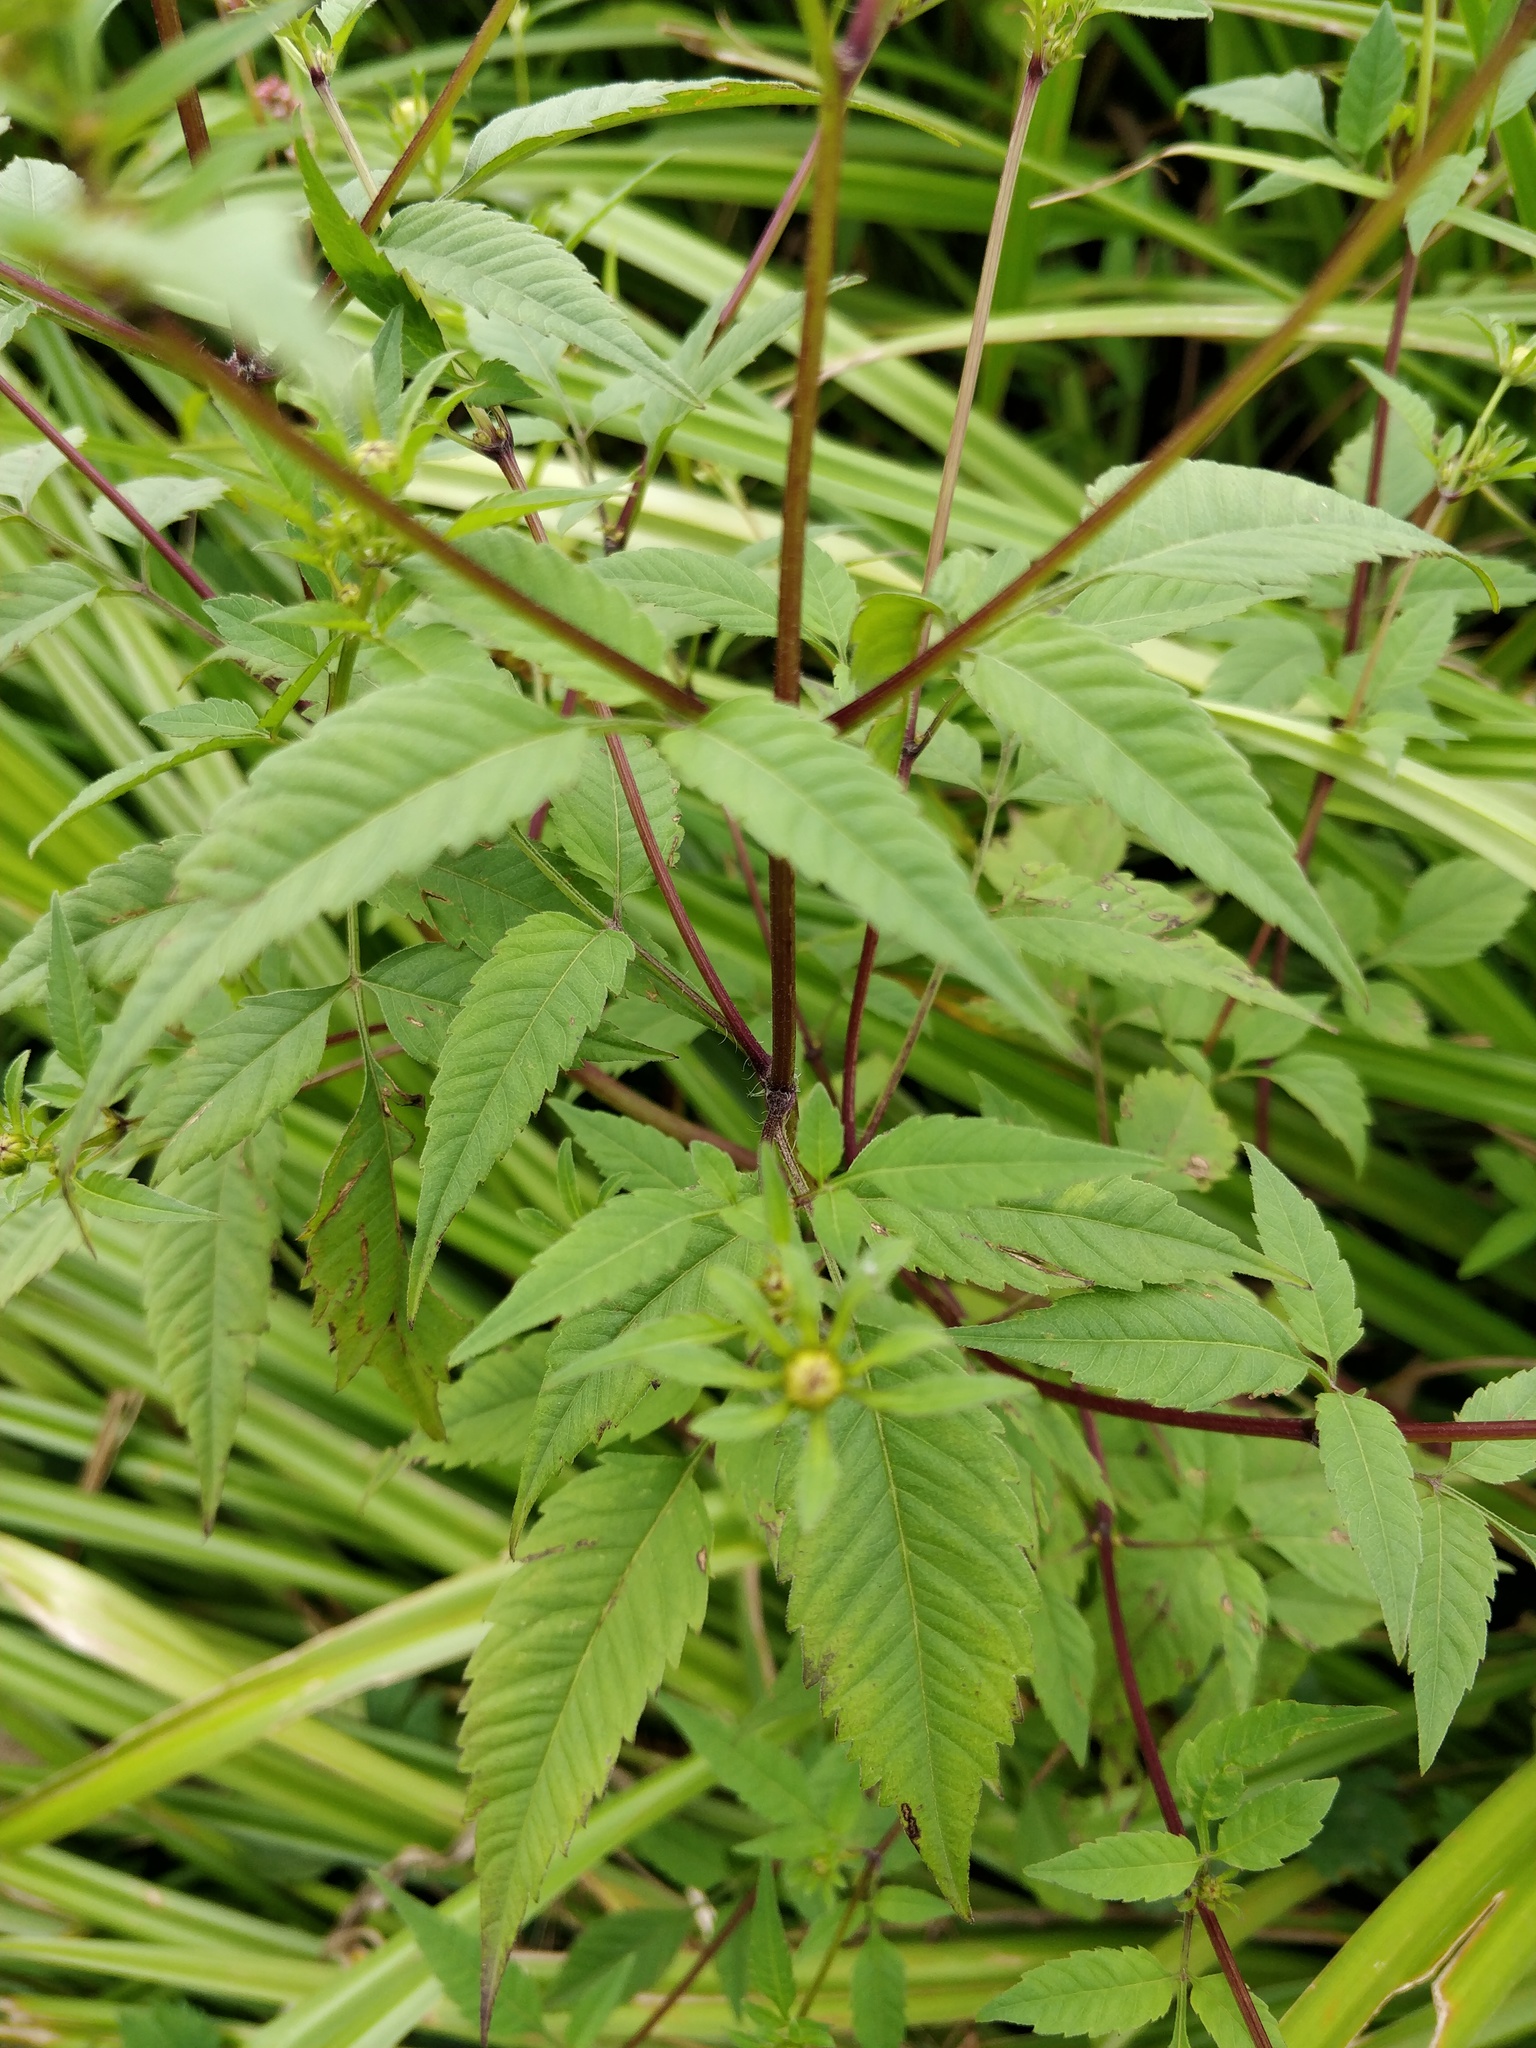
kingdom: Plantae
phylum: Tracheophyta
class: Magnoliopsida
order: Asterales
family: Asteraceae
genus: Bidens
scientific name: Bidens frondosa
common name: Beggarticks
